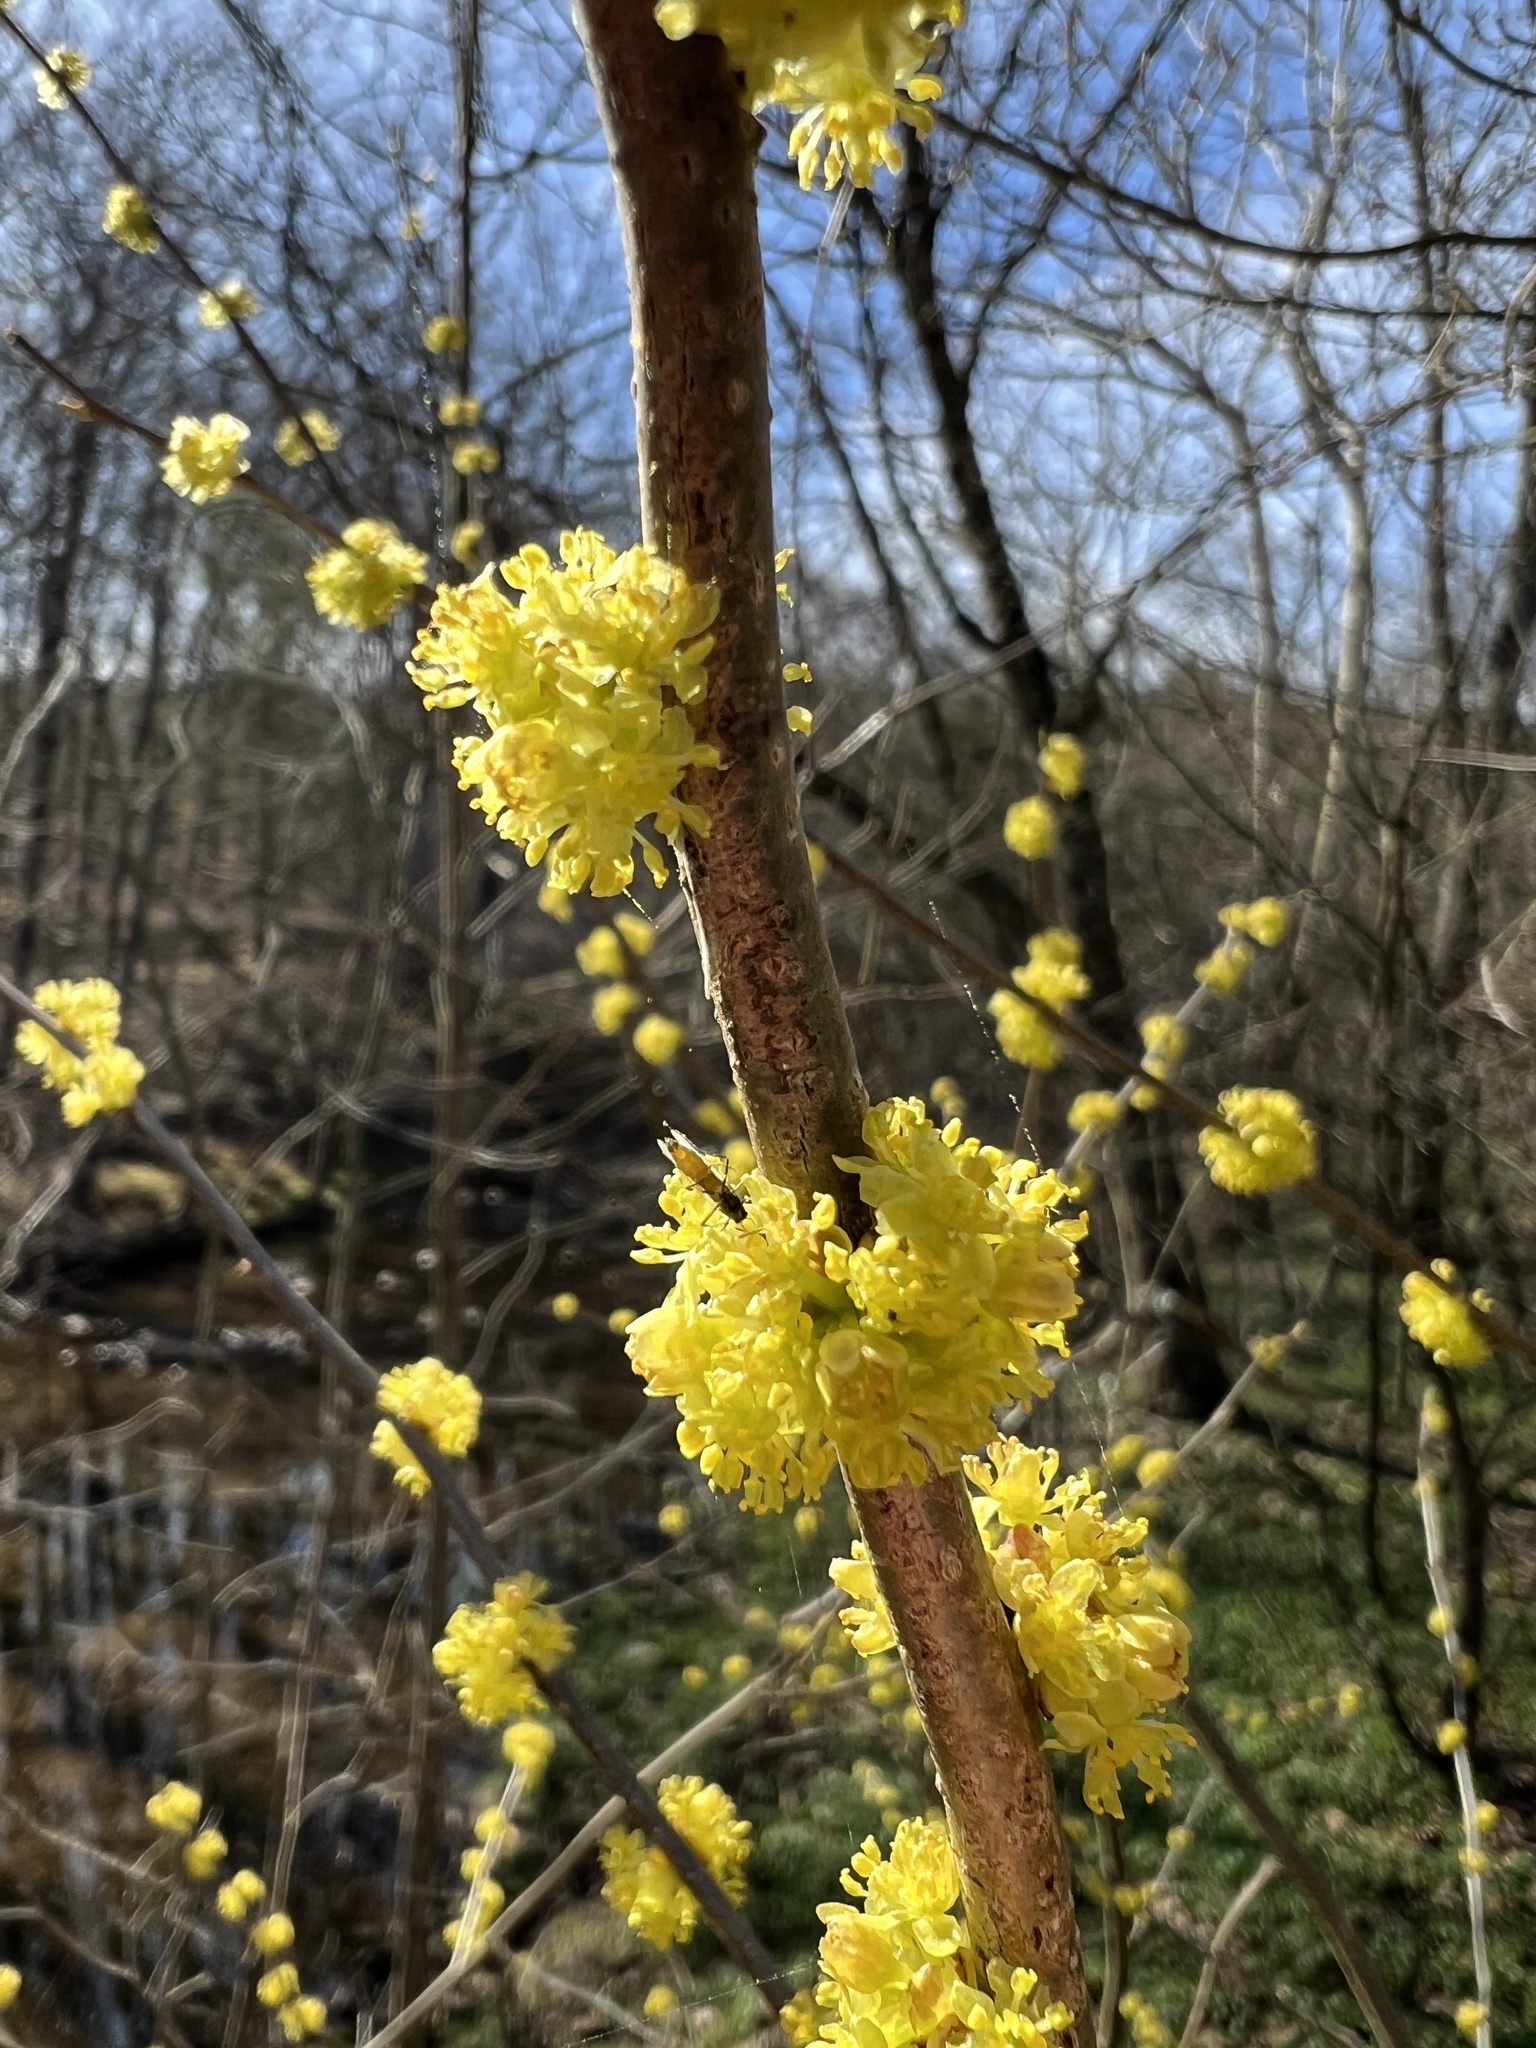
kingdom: Plantae
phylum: Tracheophyta
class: Magnoliopsida
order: Laurales
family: Lauraceae
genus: Lindera
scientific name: Lindera benzoin
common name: Spicebush
